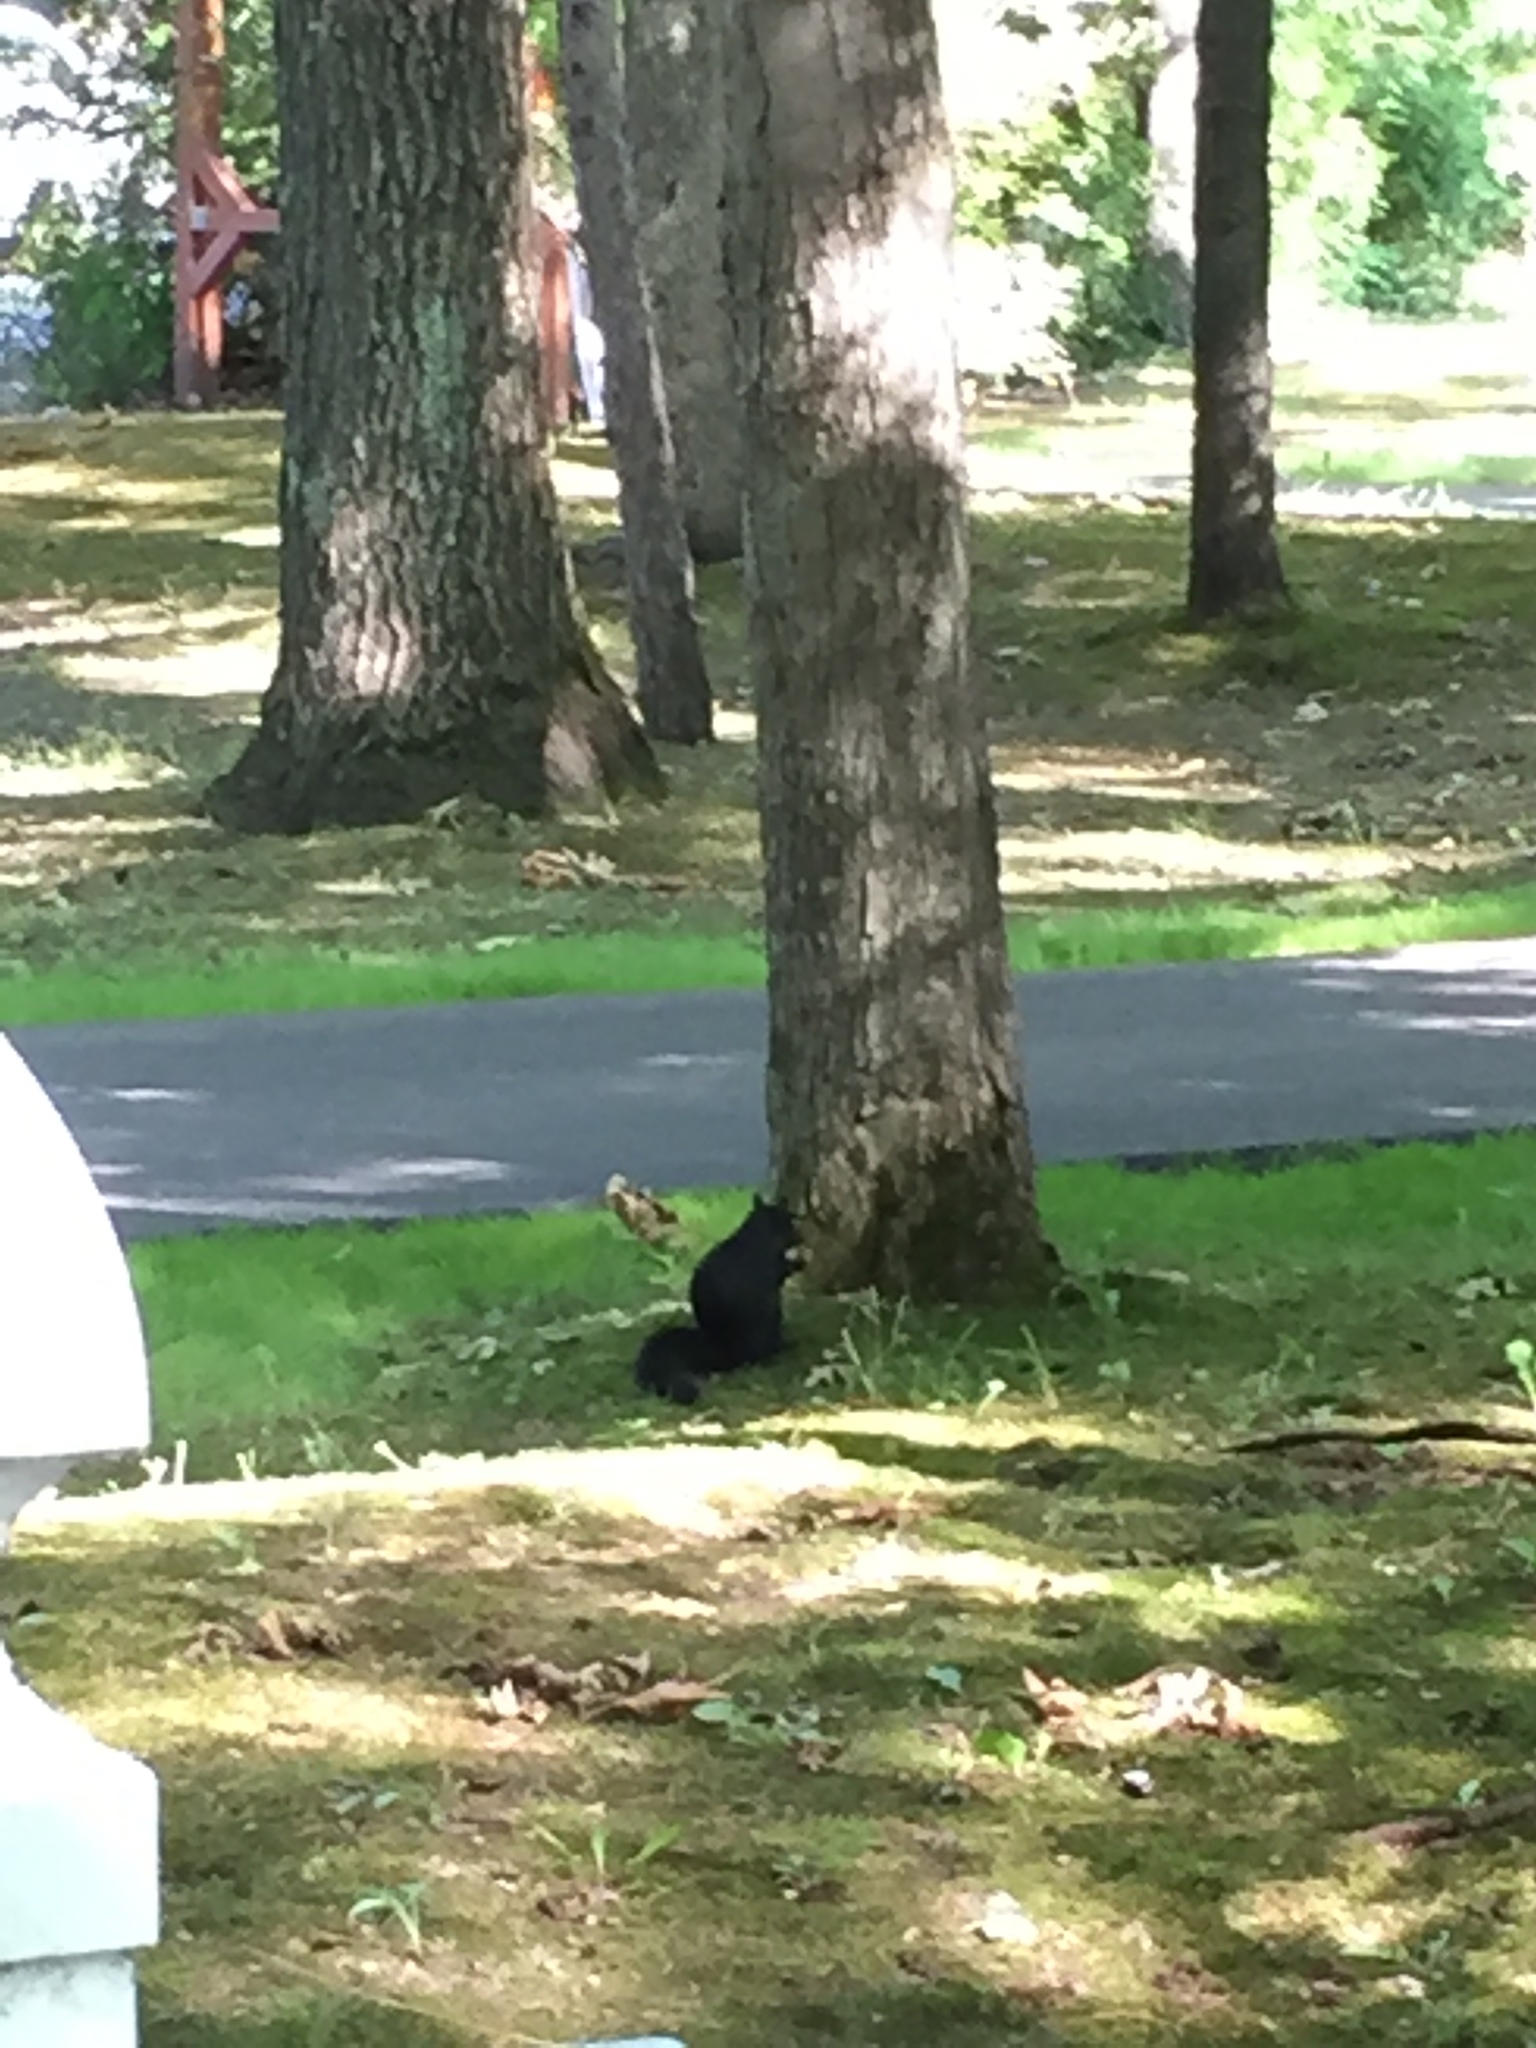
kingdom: Animalia
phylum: Chordata
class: Mammalia
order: Rodentia
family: Sciuridae
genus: Sciurus
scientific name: Sciurus carolinensis
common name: Eastern gray squirrel
